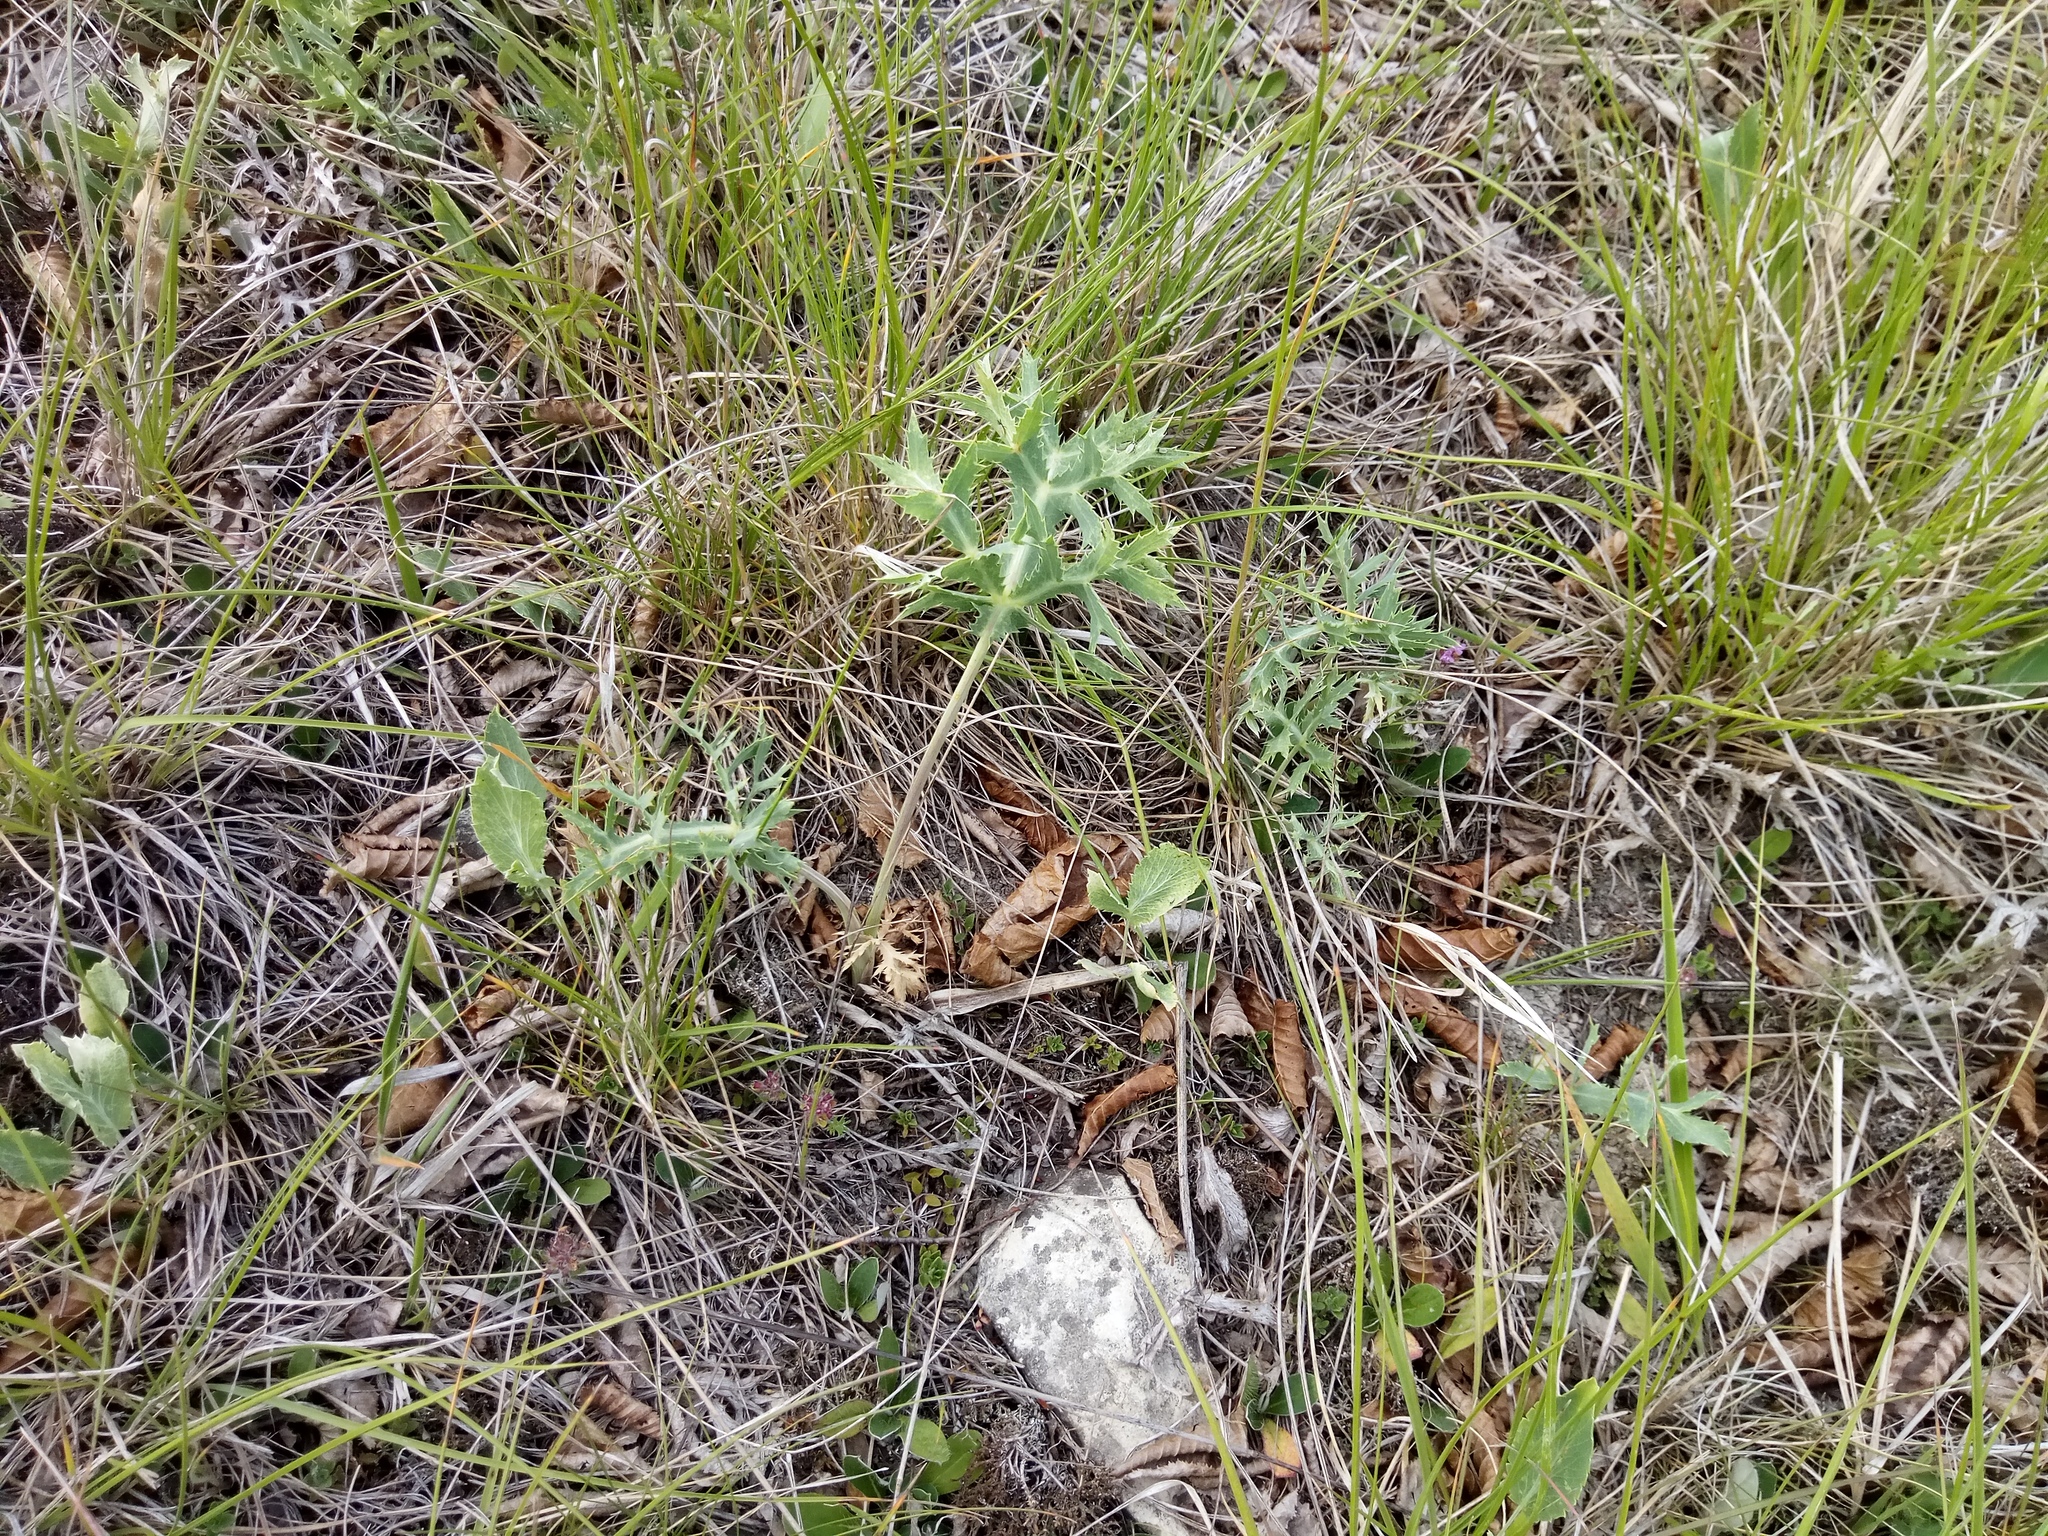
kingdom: Plantae
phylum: Tracheophyta
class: Magnoliopsida
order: Apiales
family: Apiaceae
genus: Eryngium
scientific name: Eryngium campestre
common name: Field eryngo
